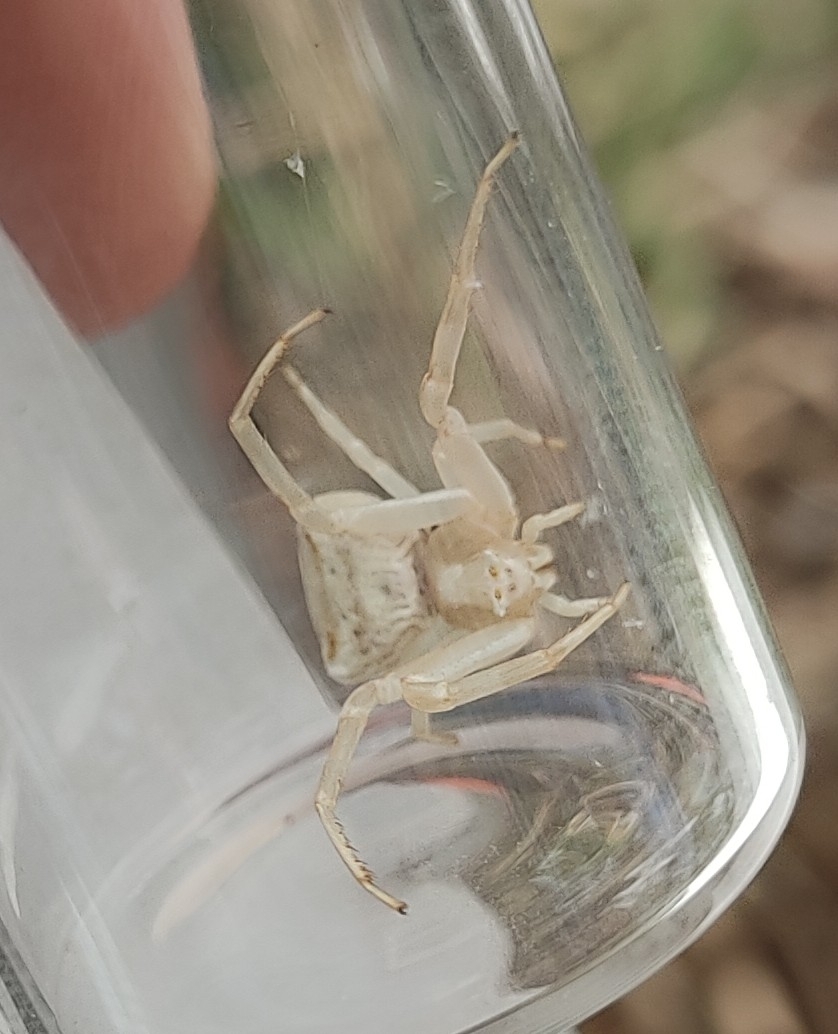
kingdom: Animalia
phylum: Arthropoda
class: Arachnida
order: Araneae
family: Thomisidae
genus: Thomisus
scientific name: Thomisus onustus
